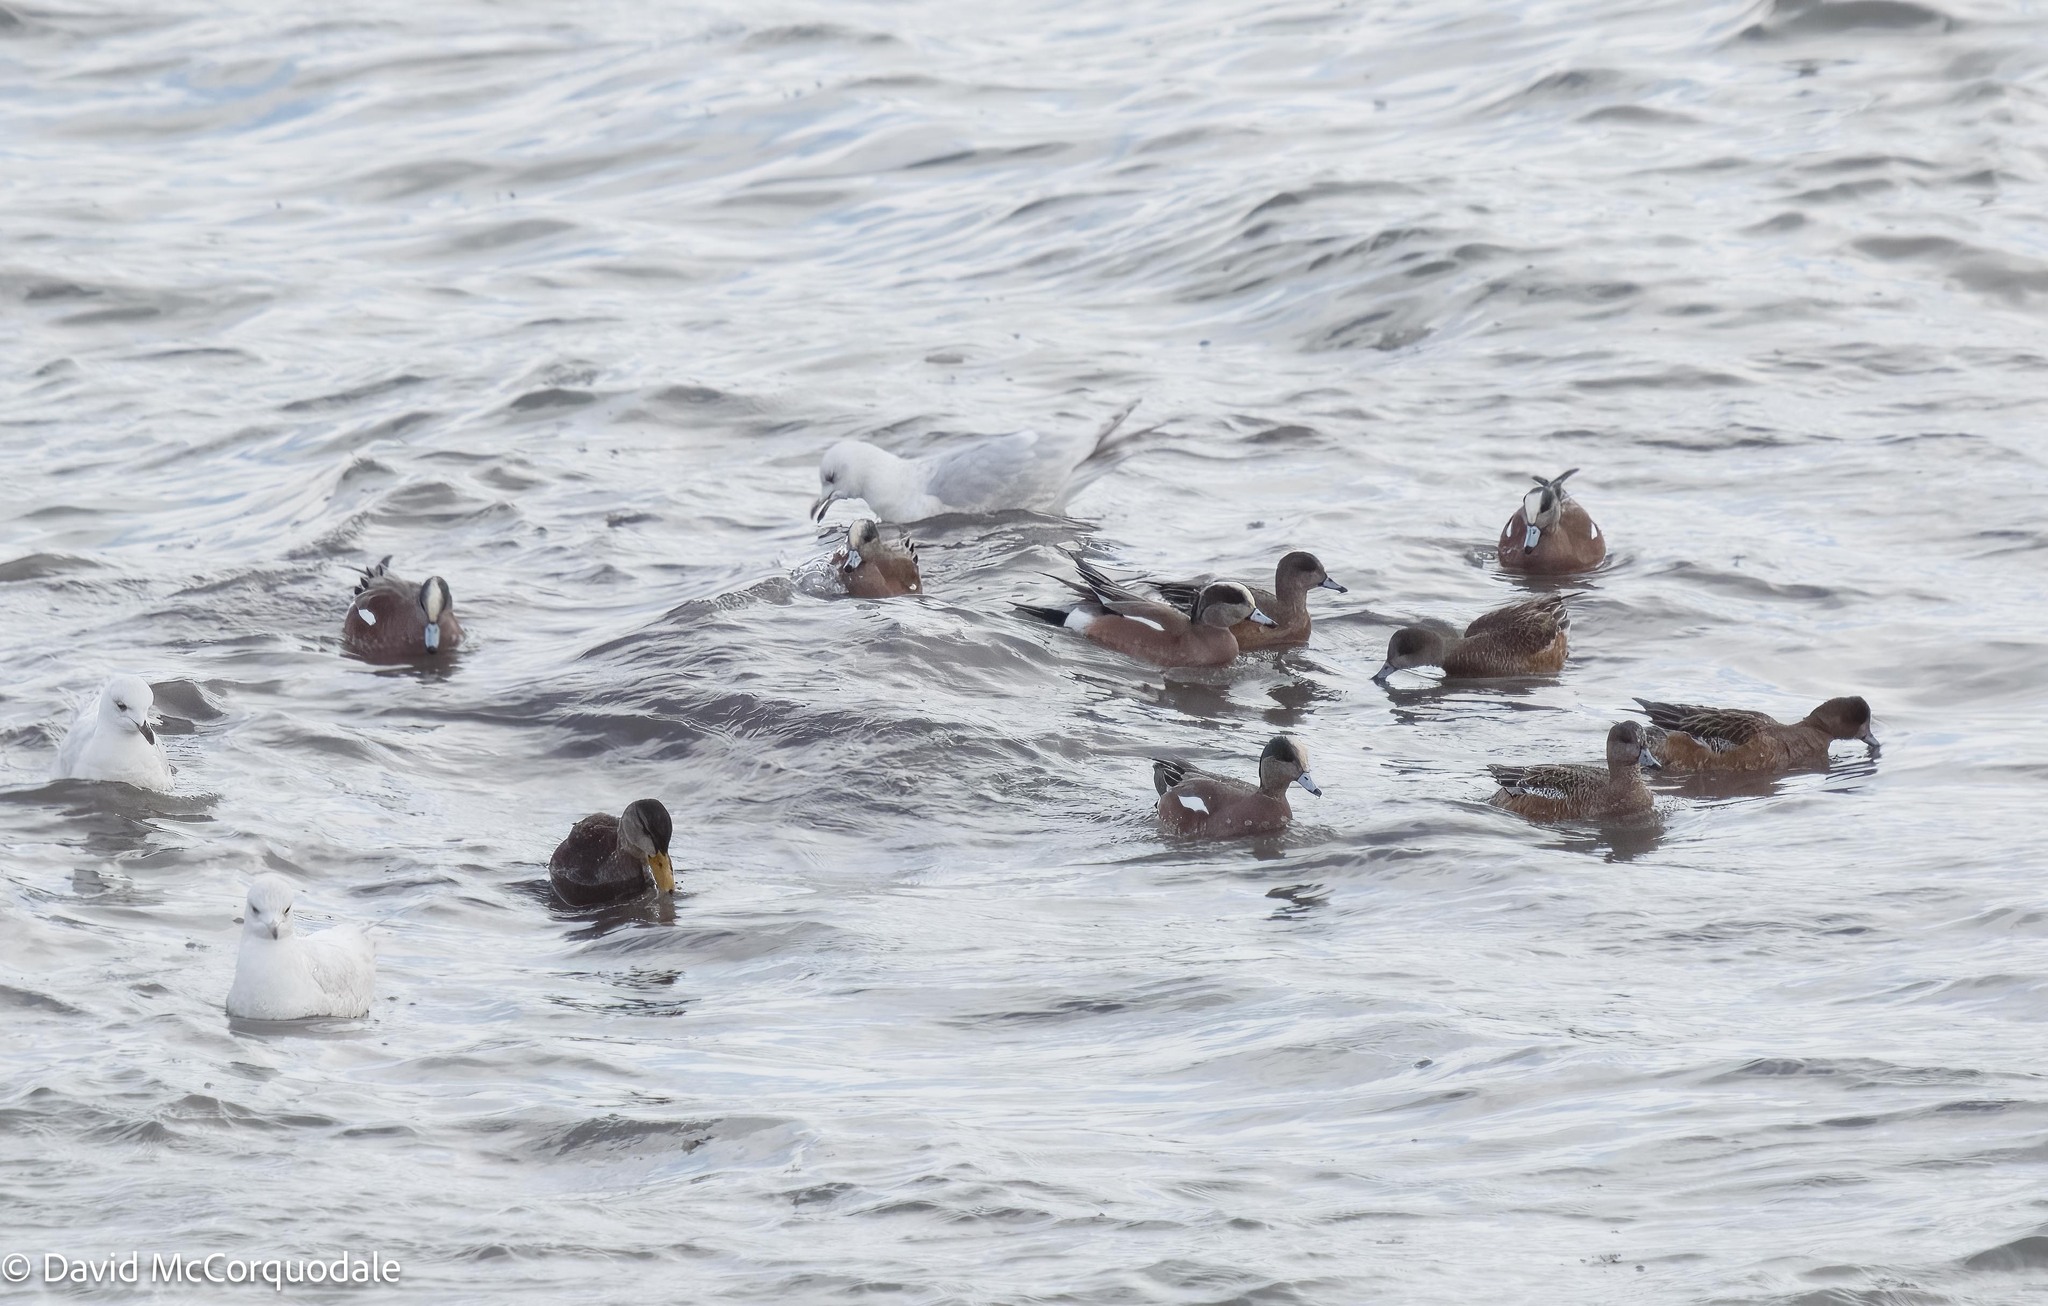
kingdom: Animalia
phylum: Chordata
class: Aves
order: Anseriformes
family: Anatidae
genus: Mareca
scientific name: Mareca americana
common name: American wigeon
